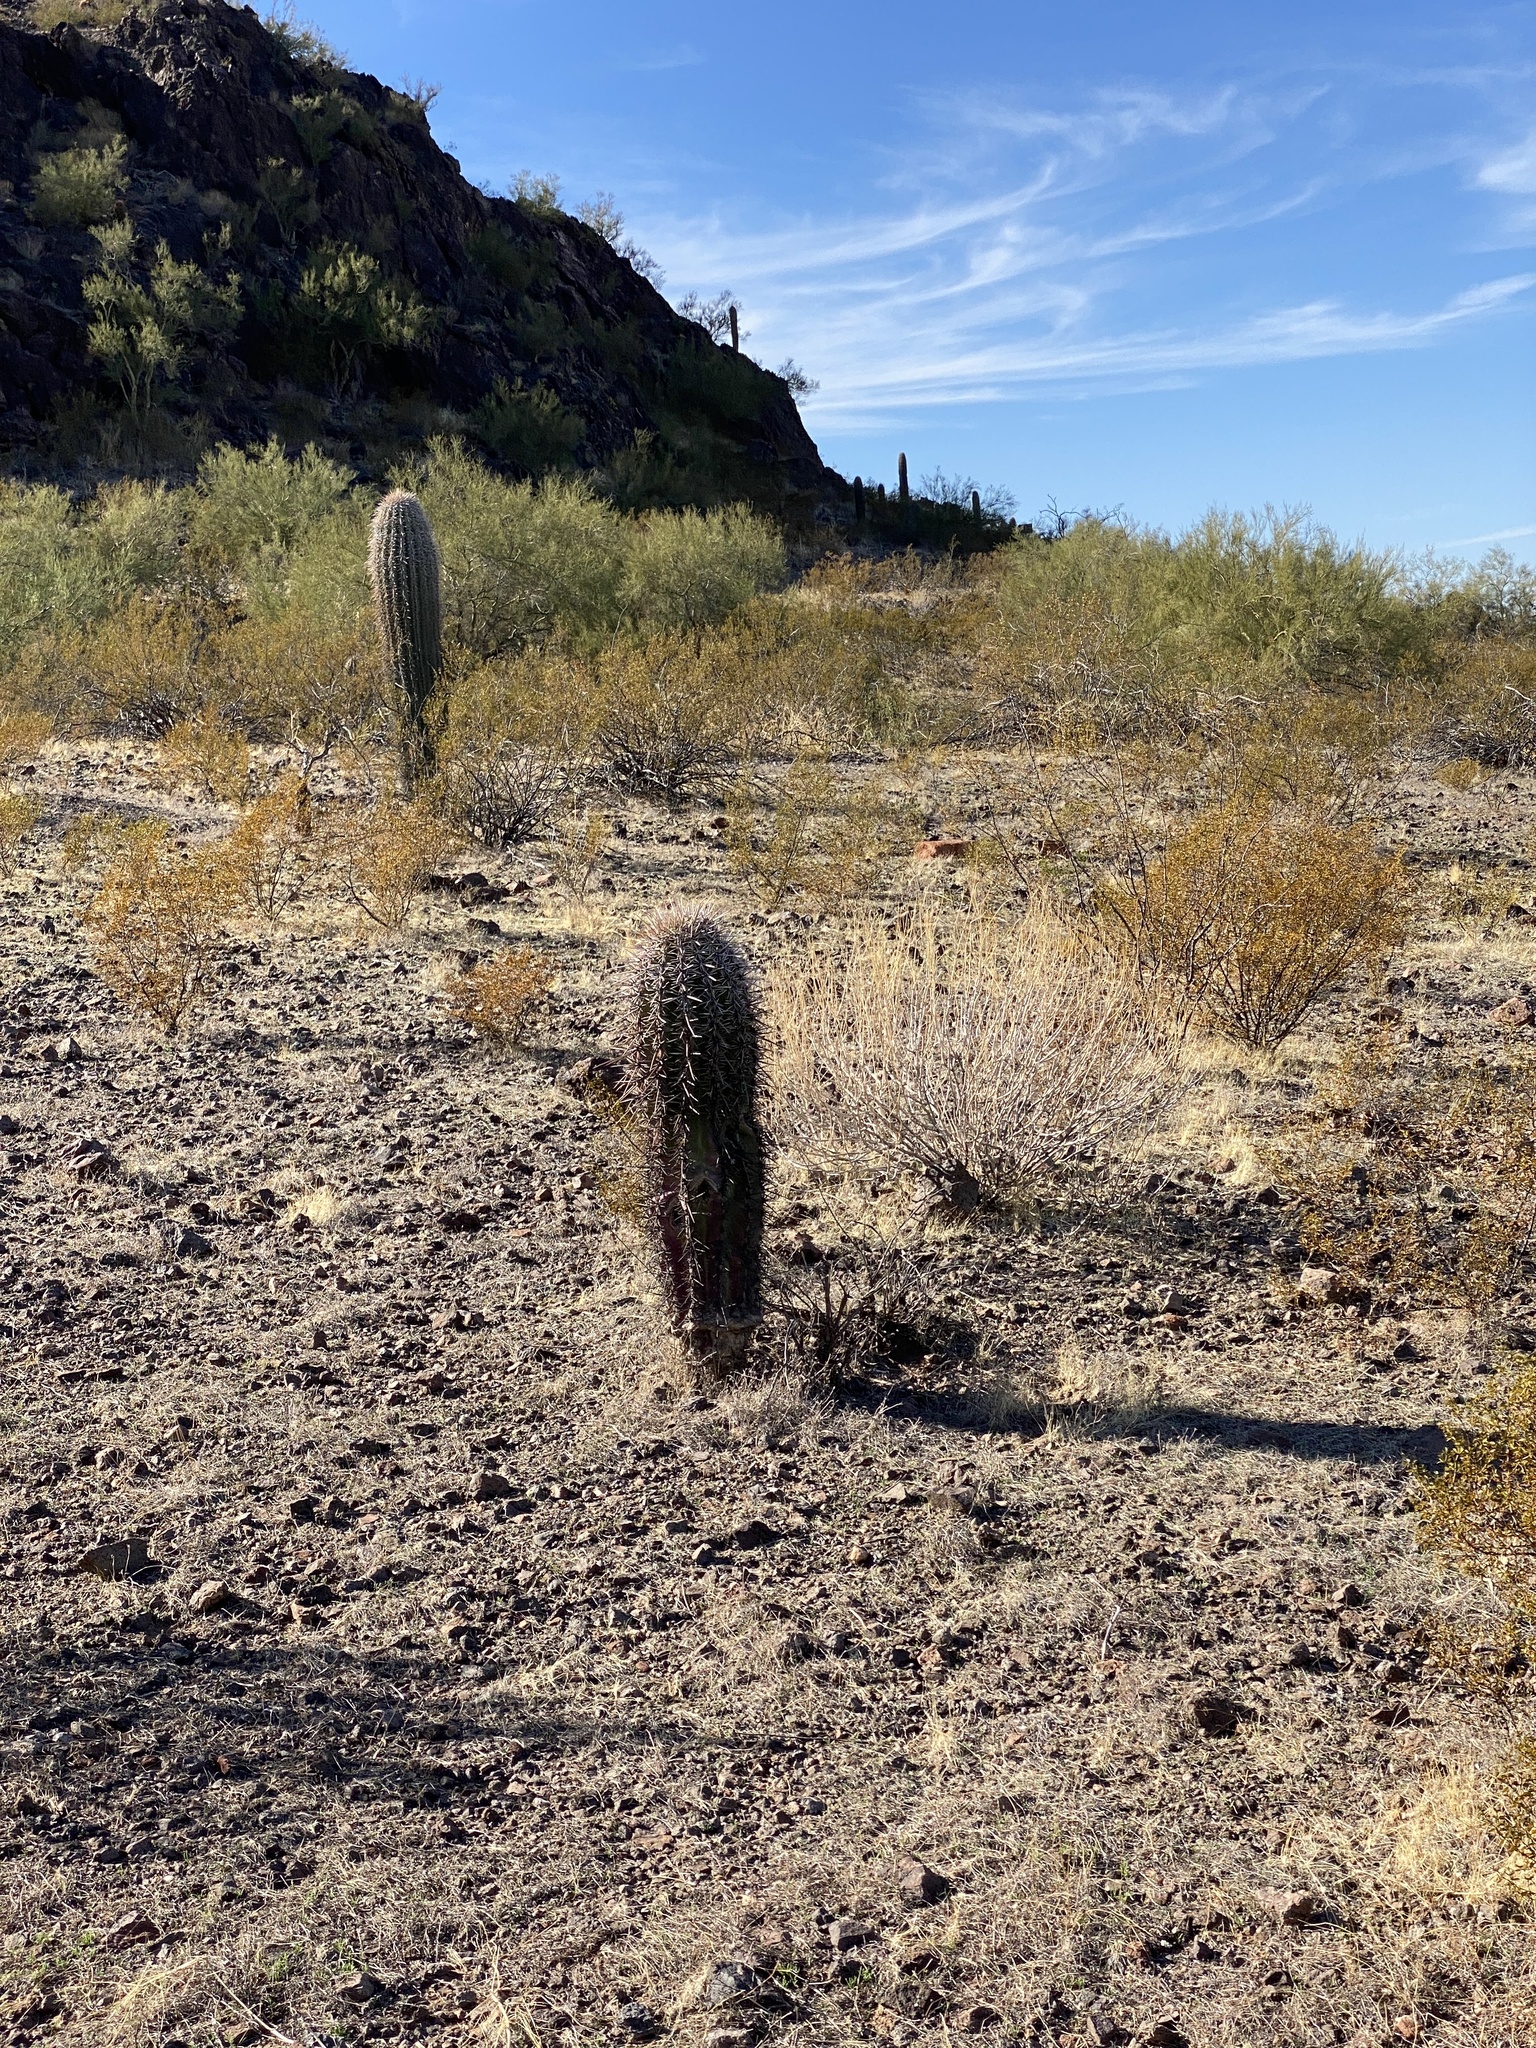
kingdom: Plantae
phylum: Tracheophyta
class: Magnoliopsida
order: Caryophyllales
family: Cactaceae
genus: Carnegiea
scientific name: Carnegiea gigantea
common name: Saguaro
